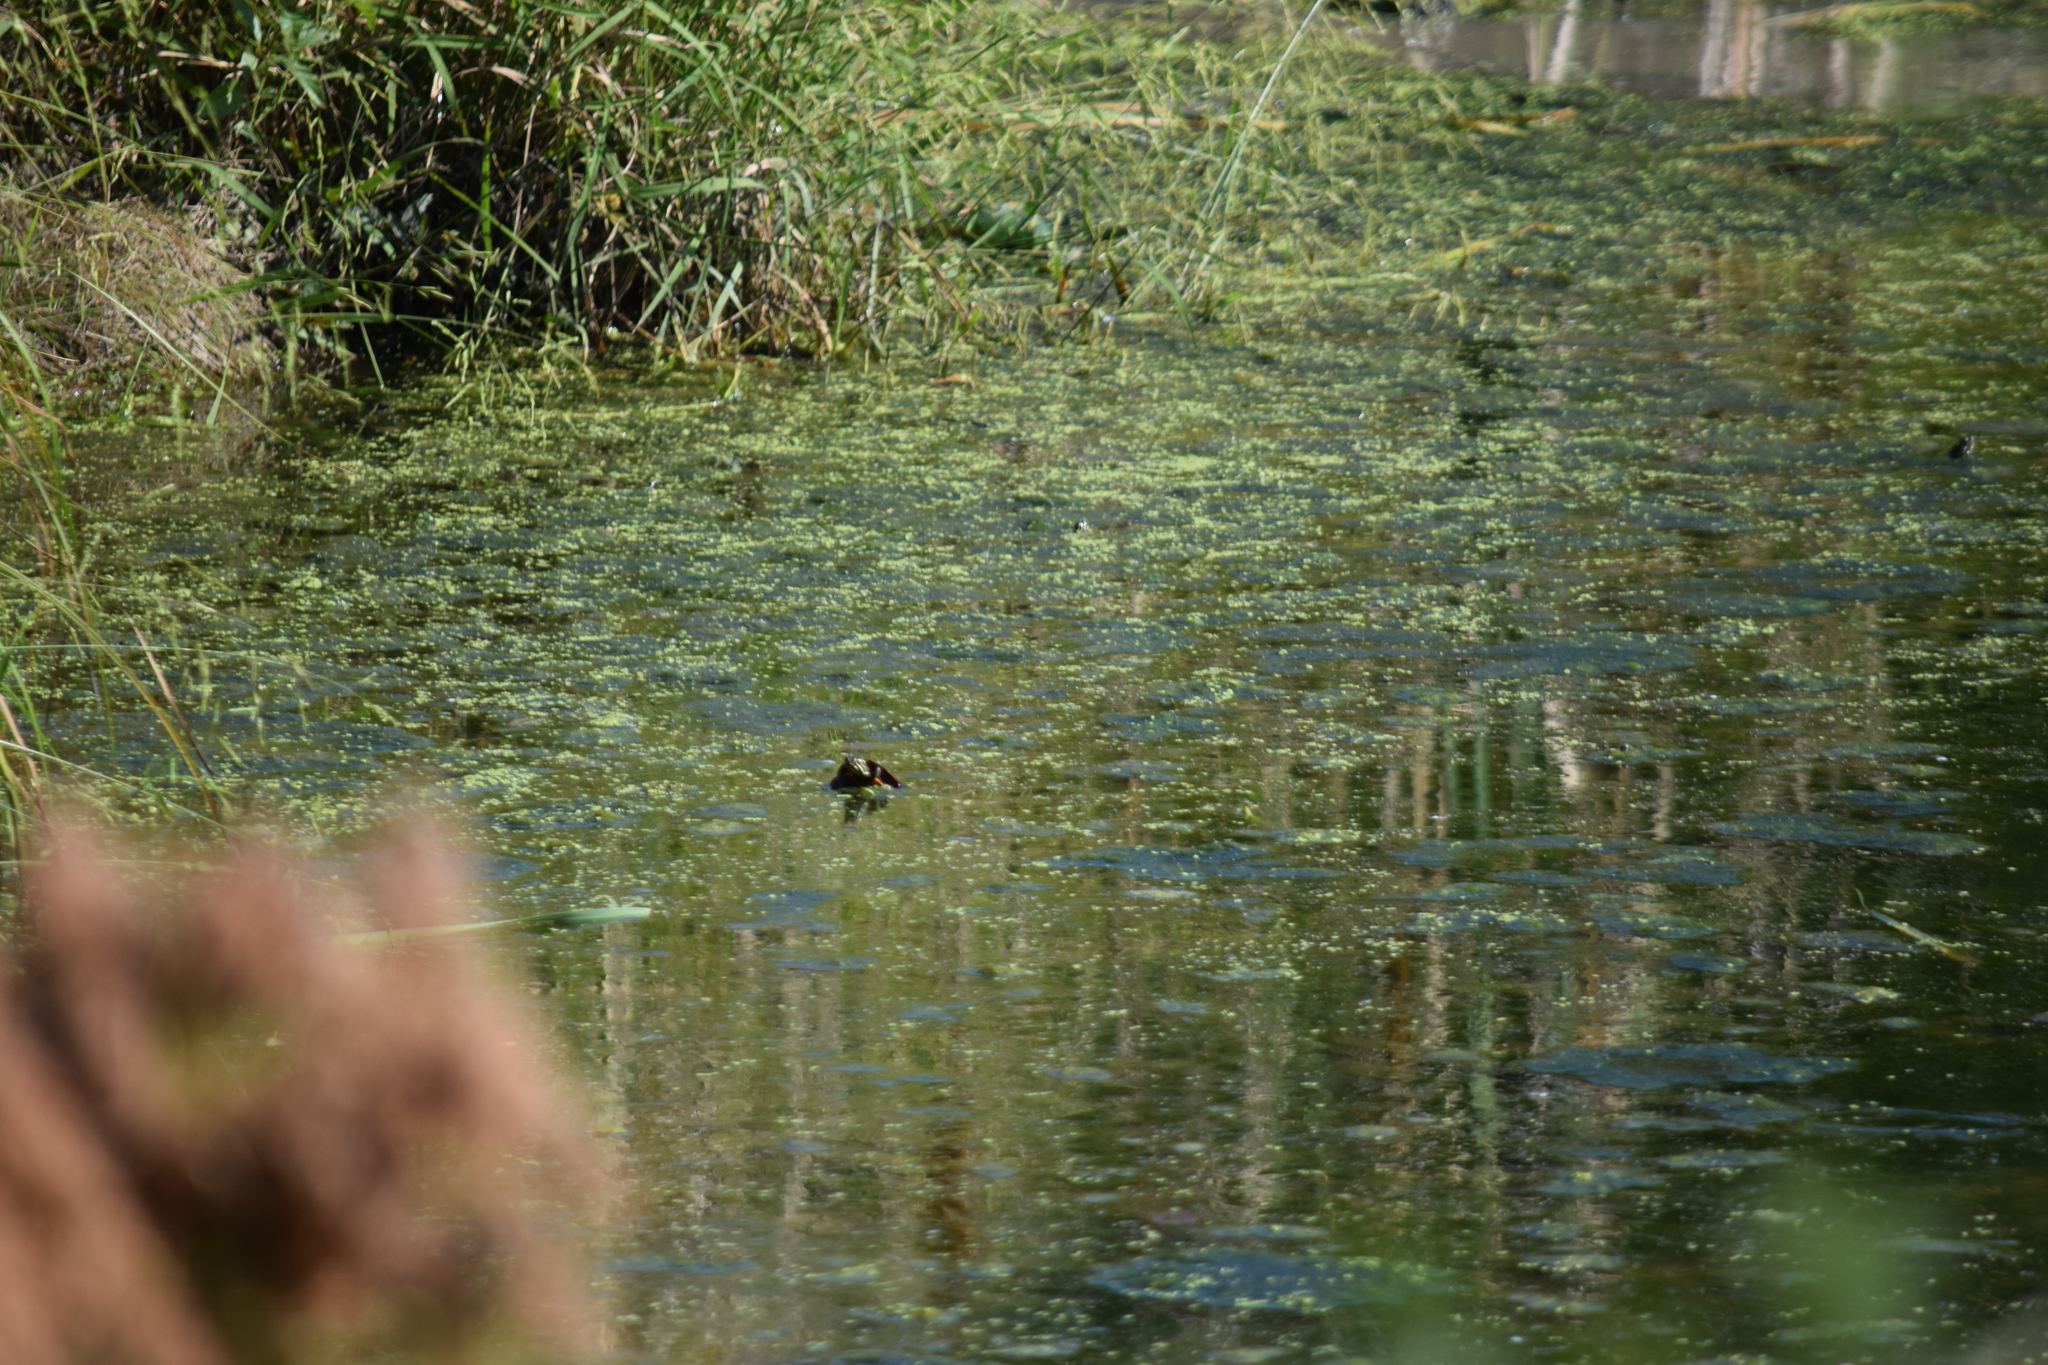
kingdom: Animalia
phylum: Chordata
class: Testudines
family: Emydidae
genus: Chrysemys
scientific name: Chrysemys picta
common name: Painted turtle
